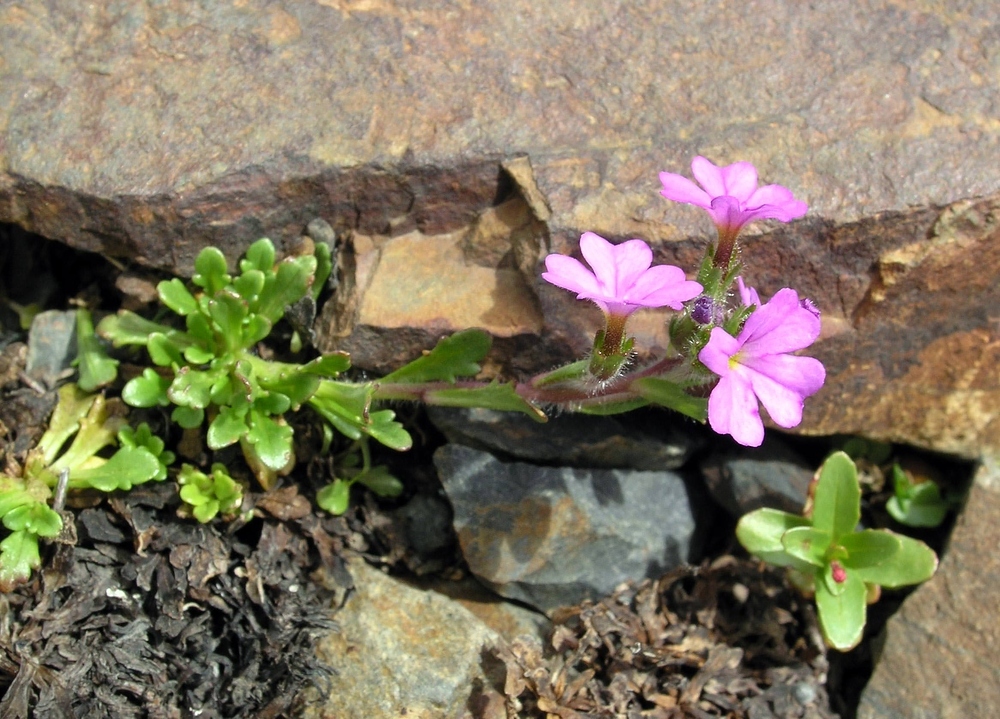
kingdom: Plantae
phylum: Tracheophyta
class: Magnoliopsida
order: Lamiales
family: Plantaginaceae
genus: Erinus
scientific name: Erinus alpinus
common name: Fairy foxglove
